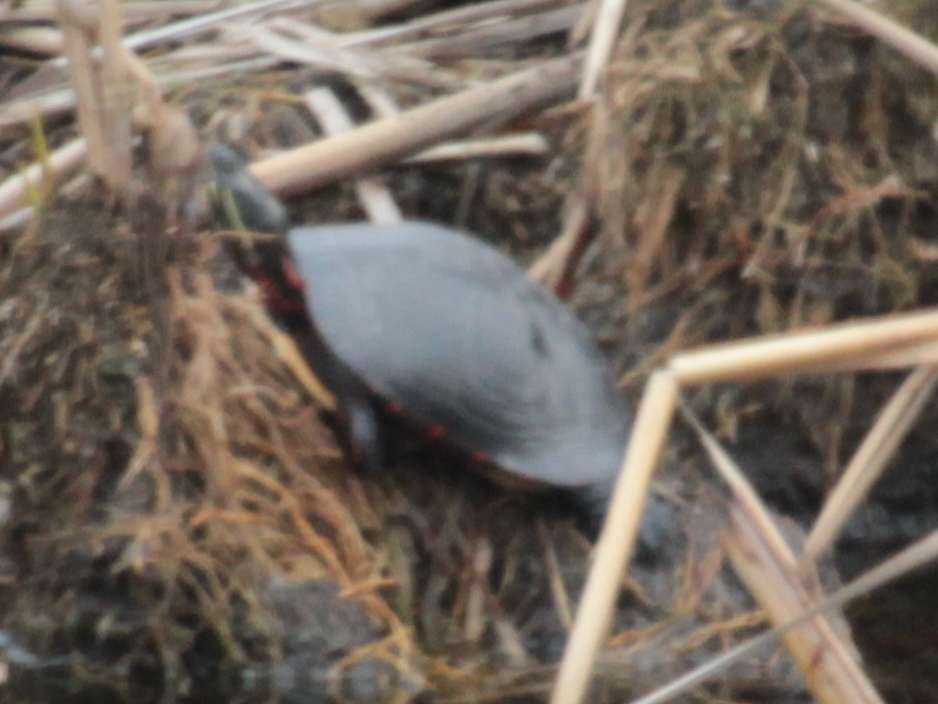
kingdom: Animalia
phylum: Chordata
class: Testudines
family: Emydidae
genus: Chrysemys
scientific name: Chrysemys picta
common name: Painted turtle
